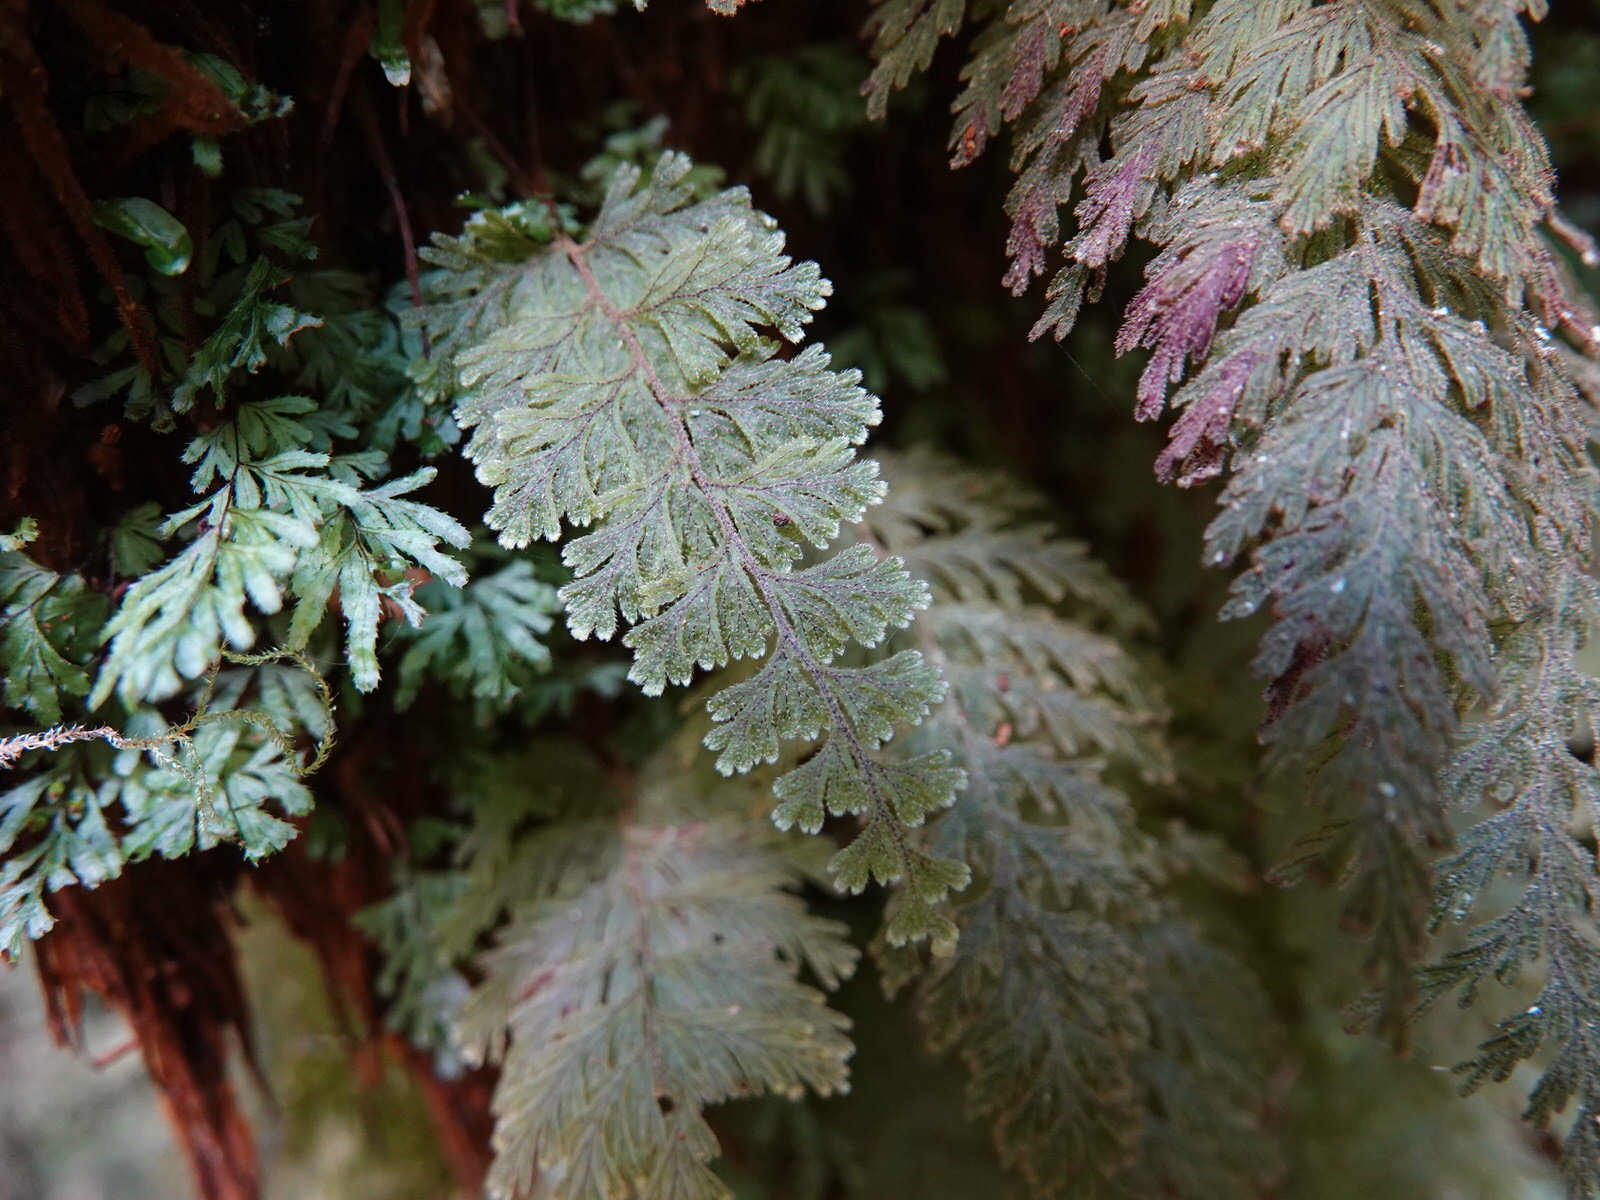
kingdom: Plantae
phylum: Tracheophyta
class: Polypodiopsida
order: Hymenophyllales
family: Hymenophyllaceae
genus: Hymenophyllum
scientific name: Hymenophyllum frankliniae
